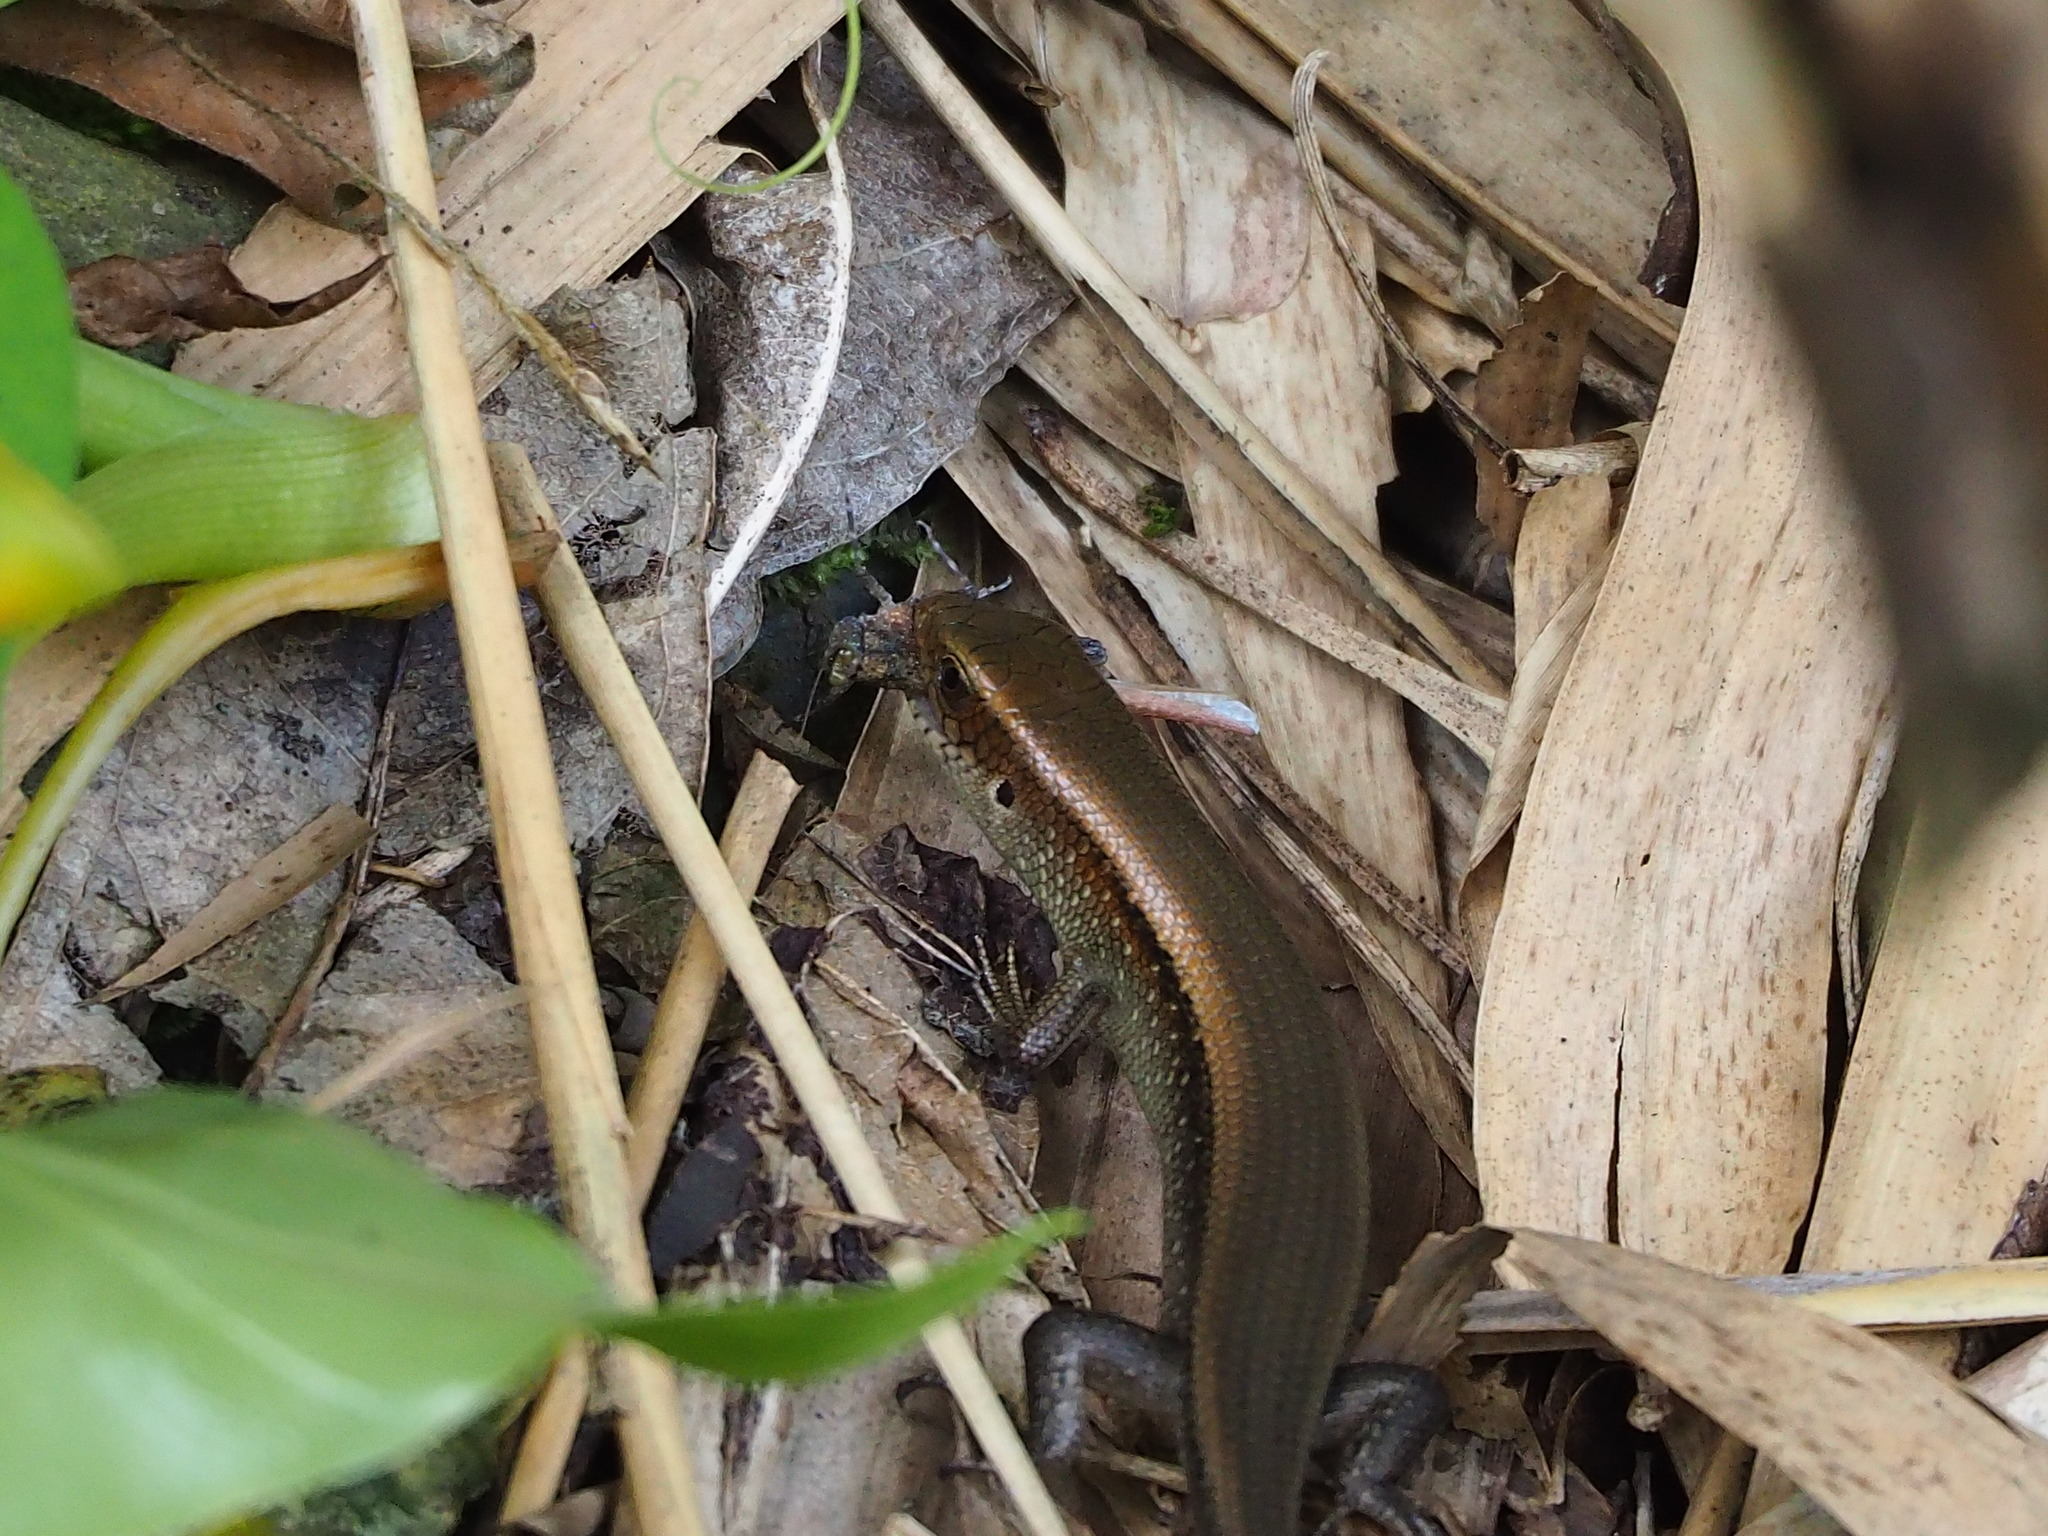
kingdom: Animalia
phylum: Chordata
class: Squamata
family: Scincidae
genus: Eutropis
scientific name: Eutropis multifasciata
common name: Common mabuya
